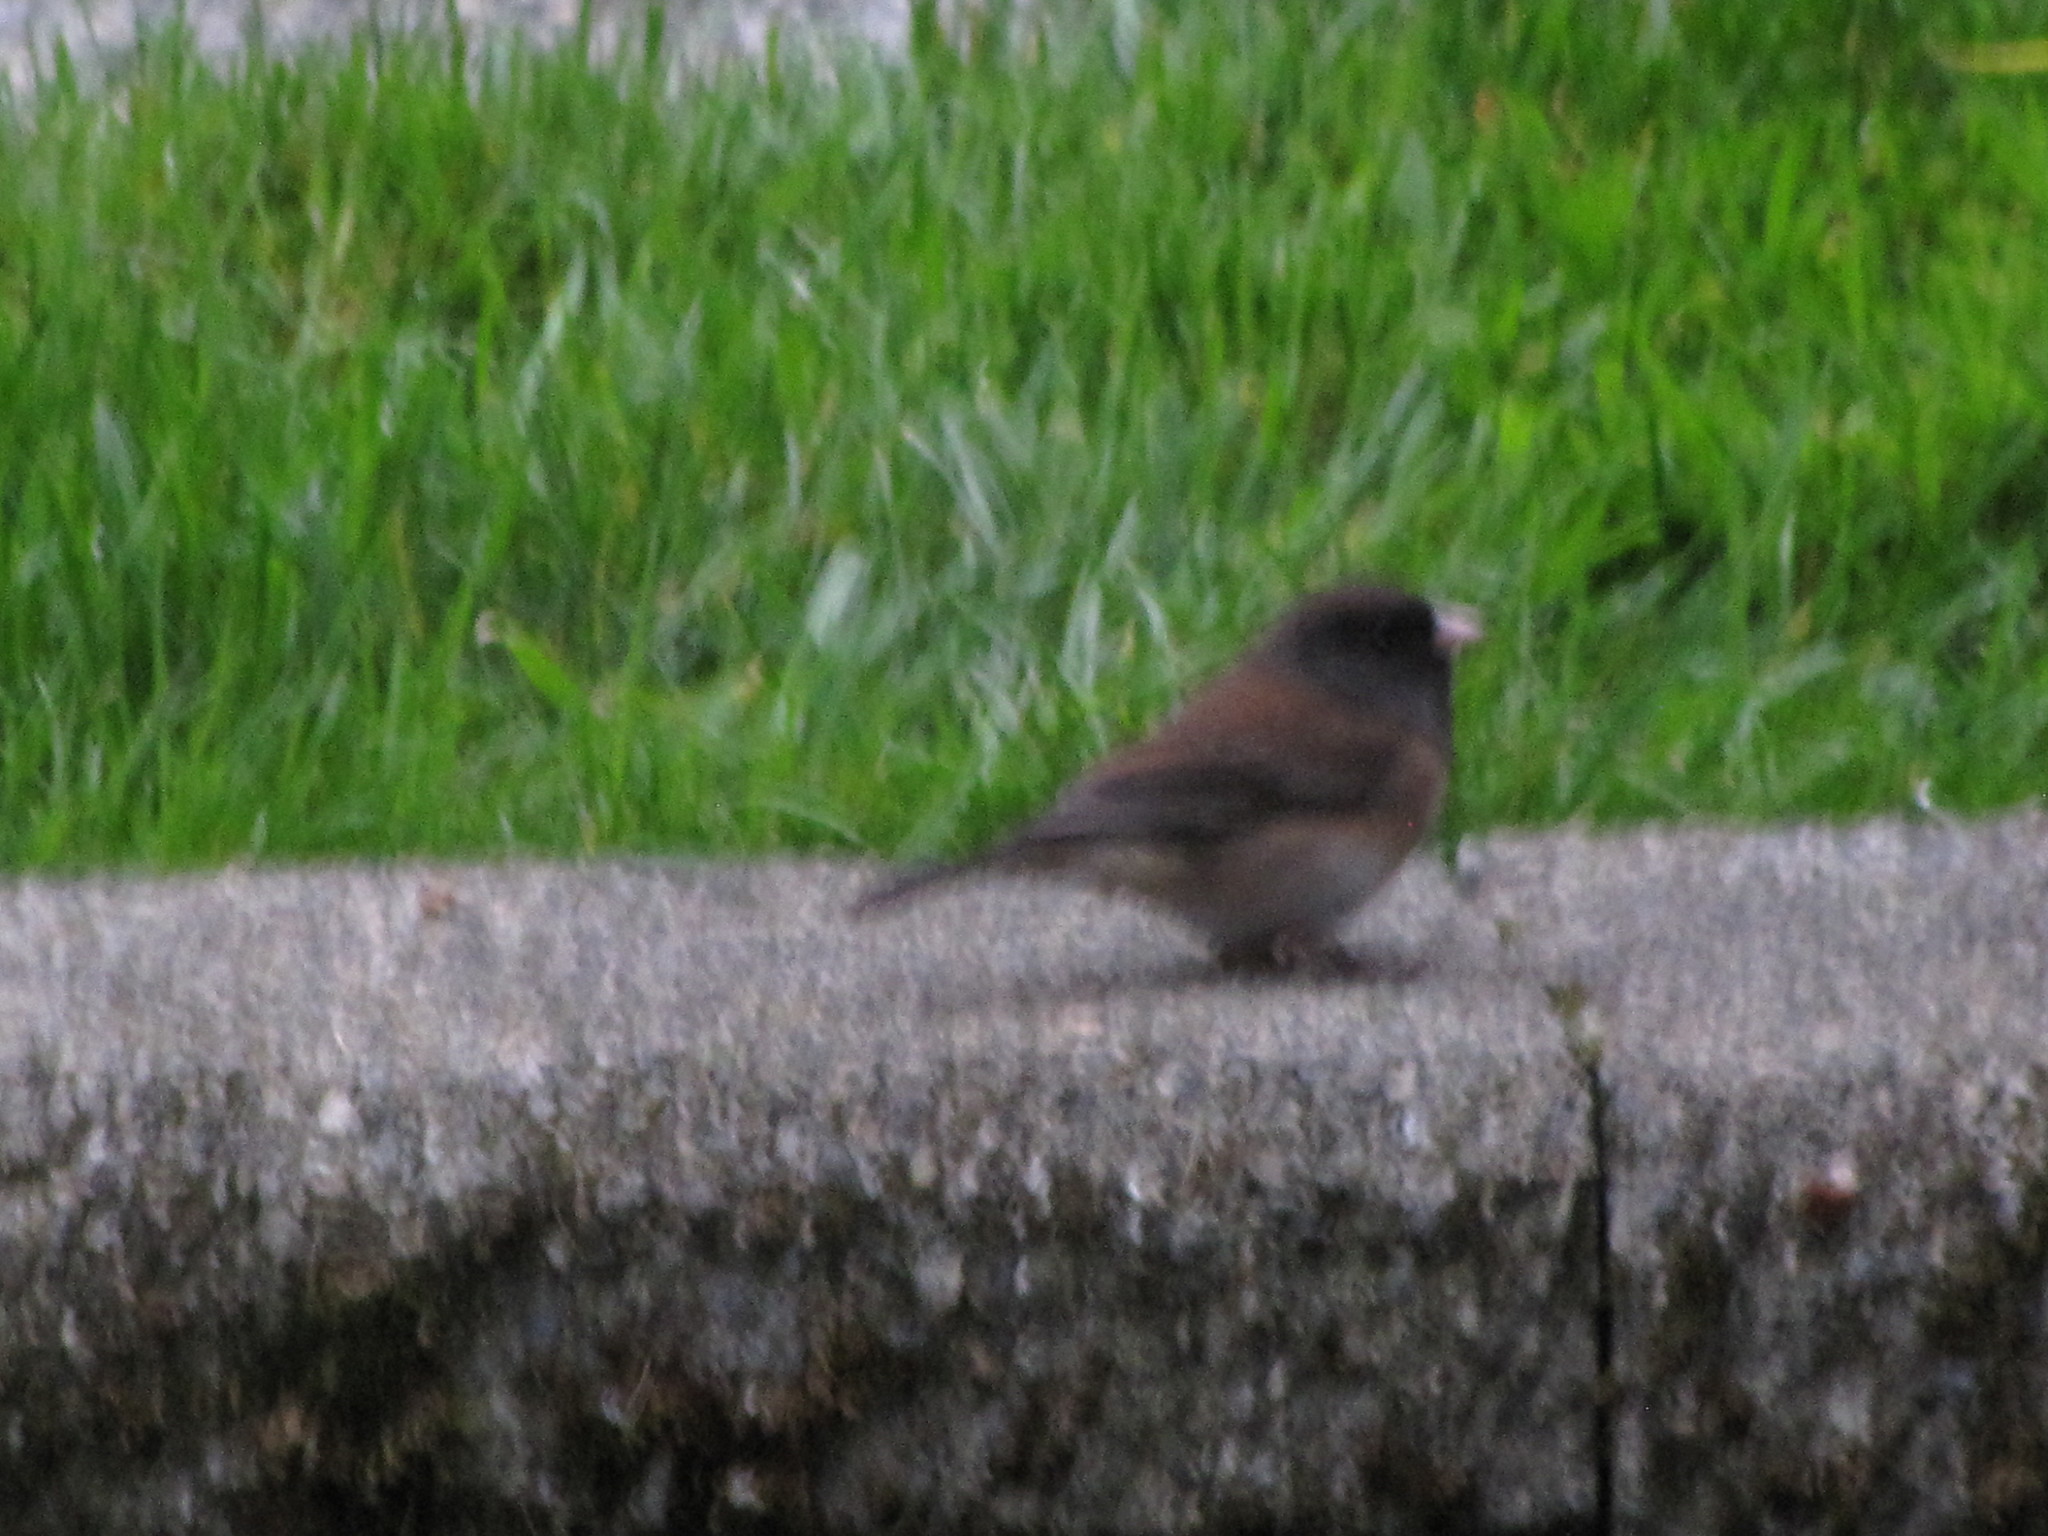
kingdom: Animalia
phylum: Chordata
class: Aves
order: Passeriformes
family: Passerellidae
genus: Junco
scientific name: Junco hyemalis
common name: Dark-eyed junco
